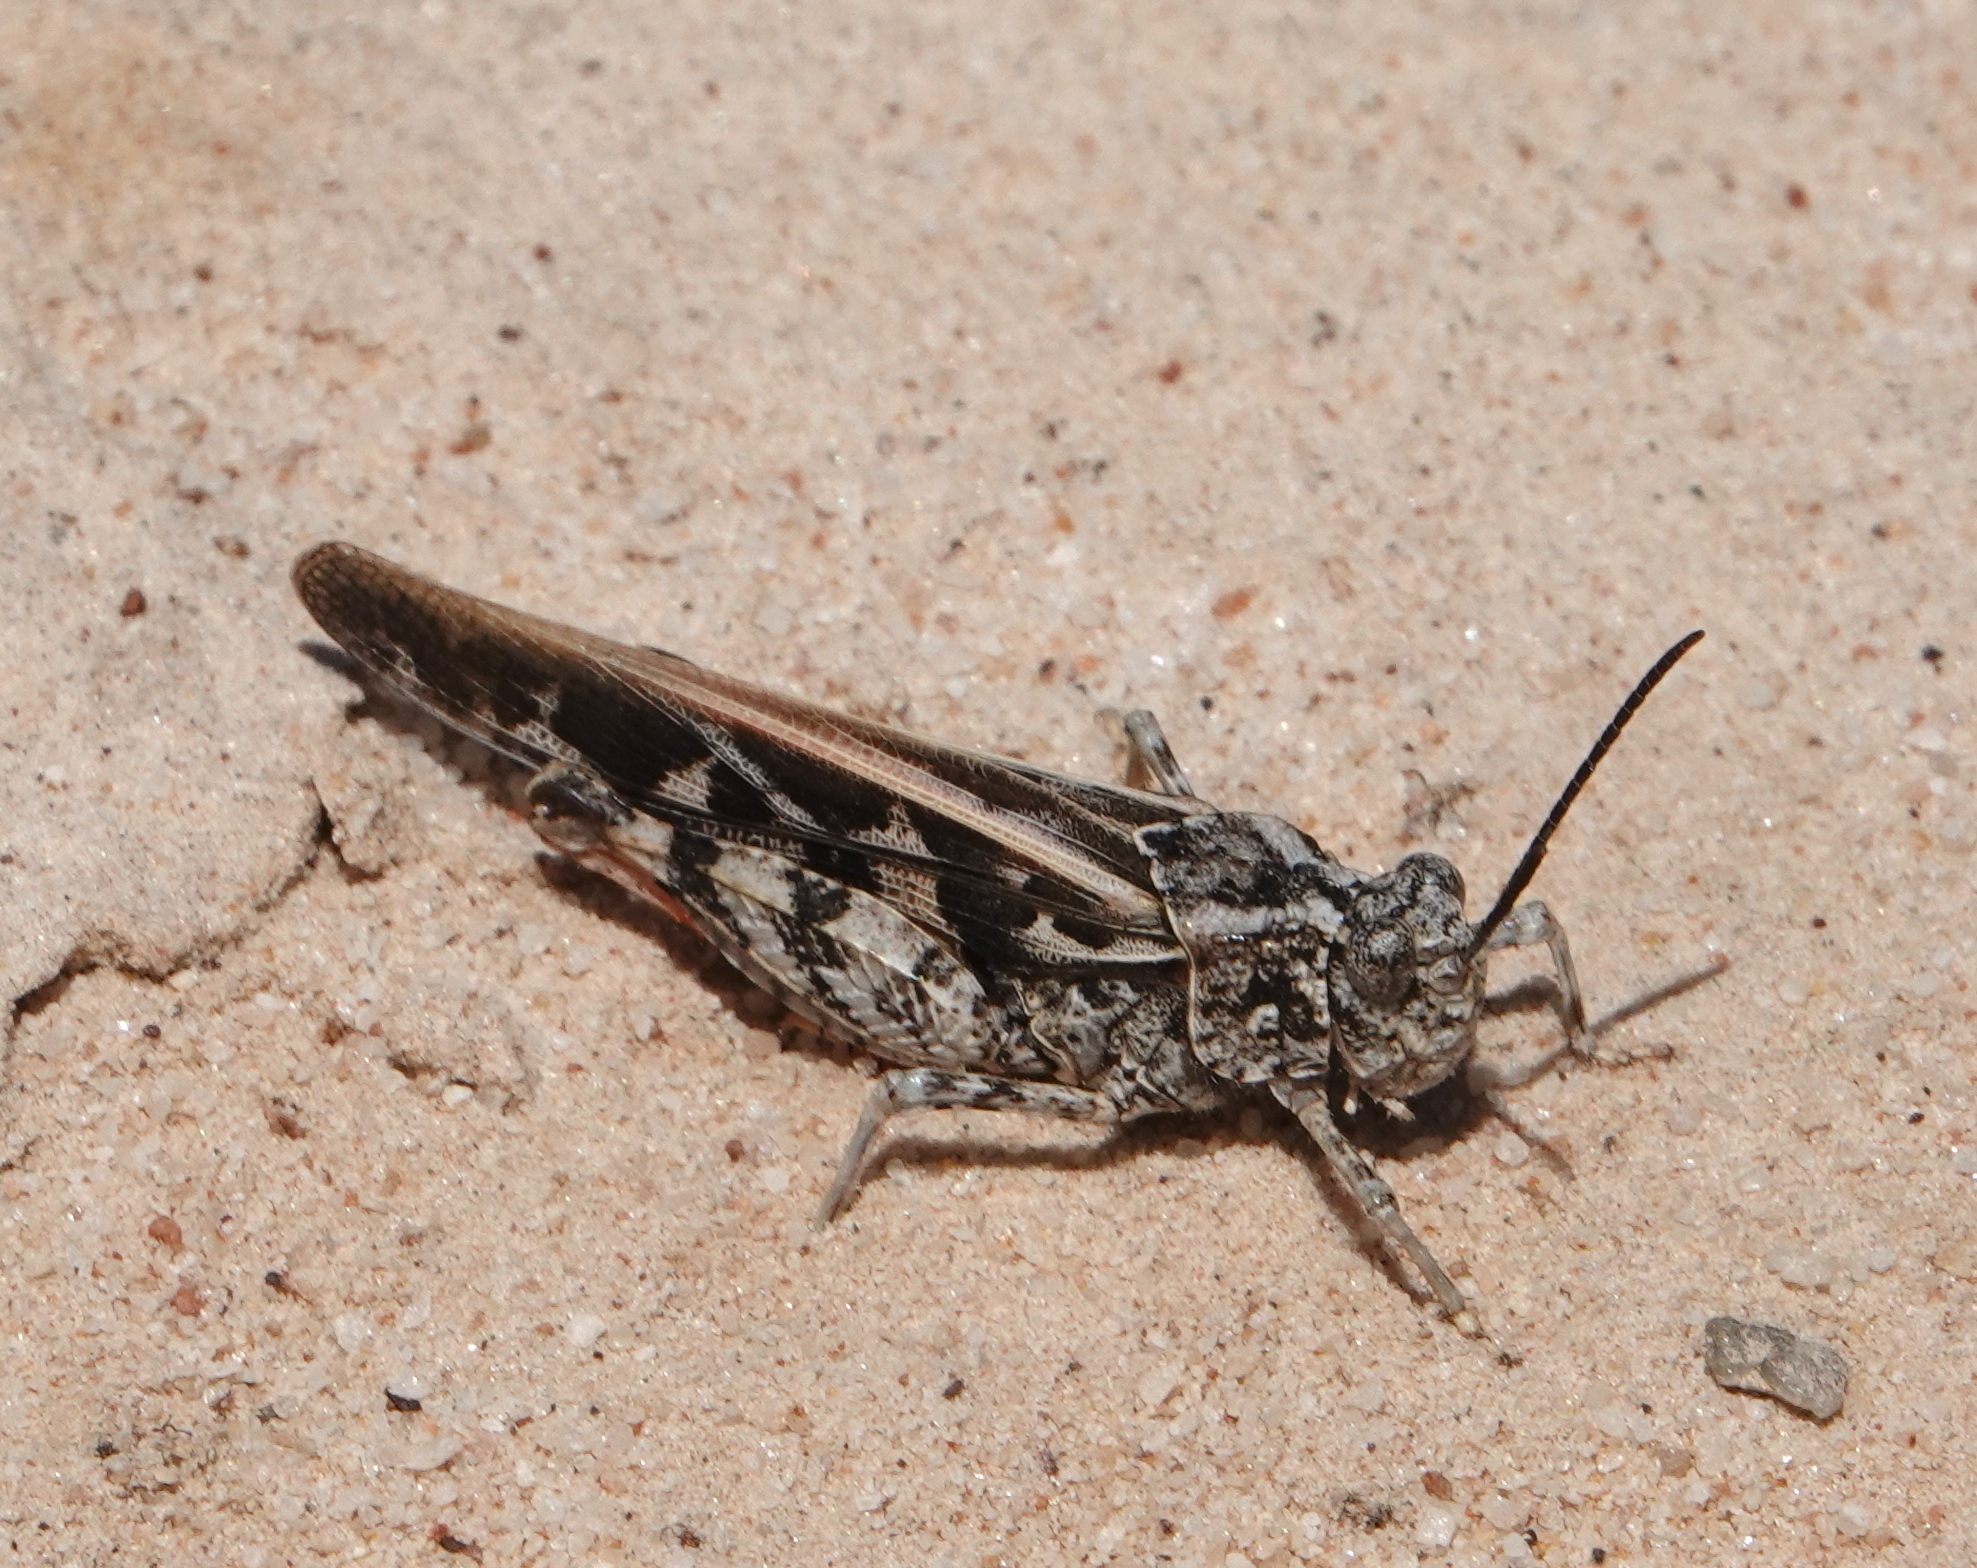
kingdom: Animalia
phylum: Arthropoda
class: Insecta
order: Orthoptera
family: Acrididae
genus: Xanthippus
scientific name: Xanthippus corallipes
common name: Redshanked grasshopper
